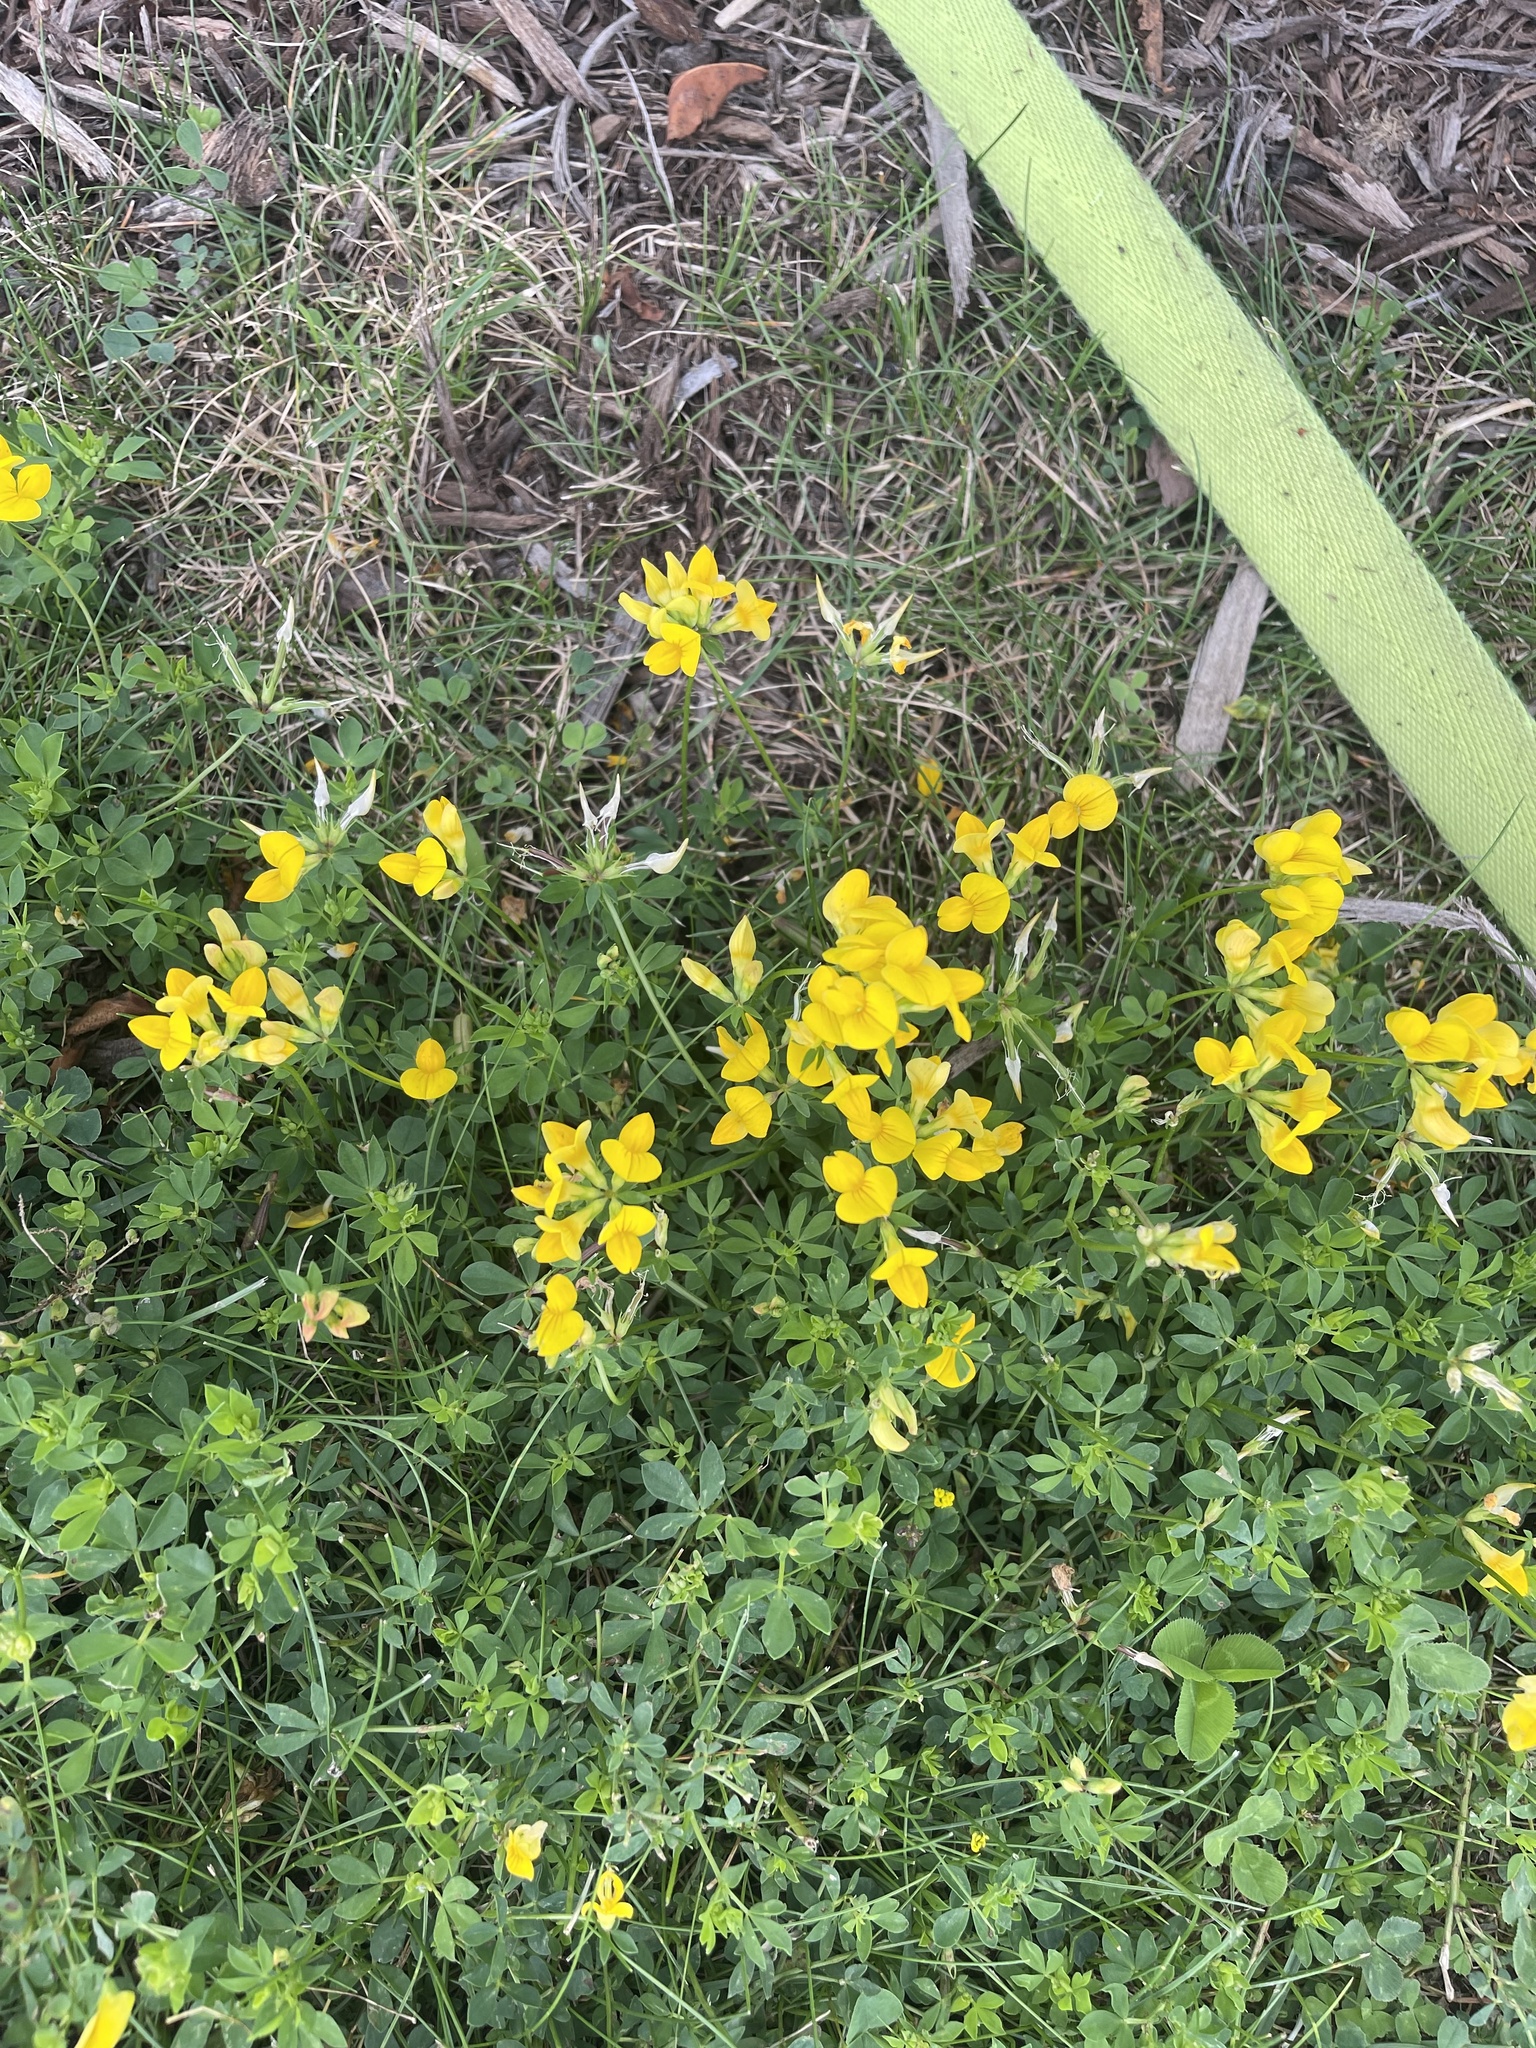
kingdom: Plantae
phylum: Tracheophyta
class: Magnoliopsida
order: Fabales
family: Fabaceae
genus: Lotus
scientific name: Lotus corniculatus
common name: Common bird's-foot-trefoil
